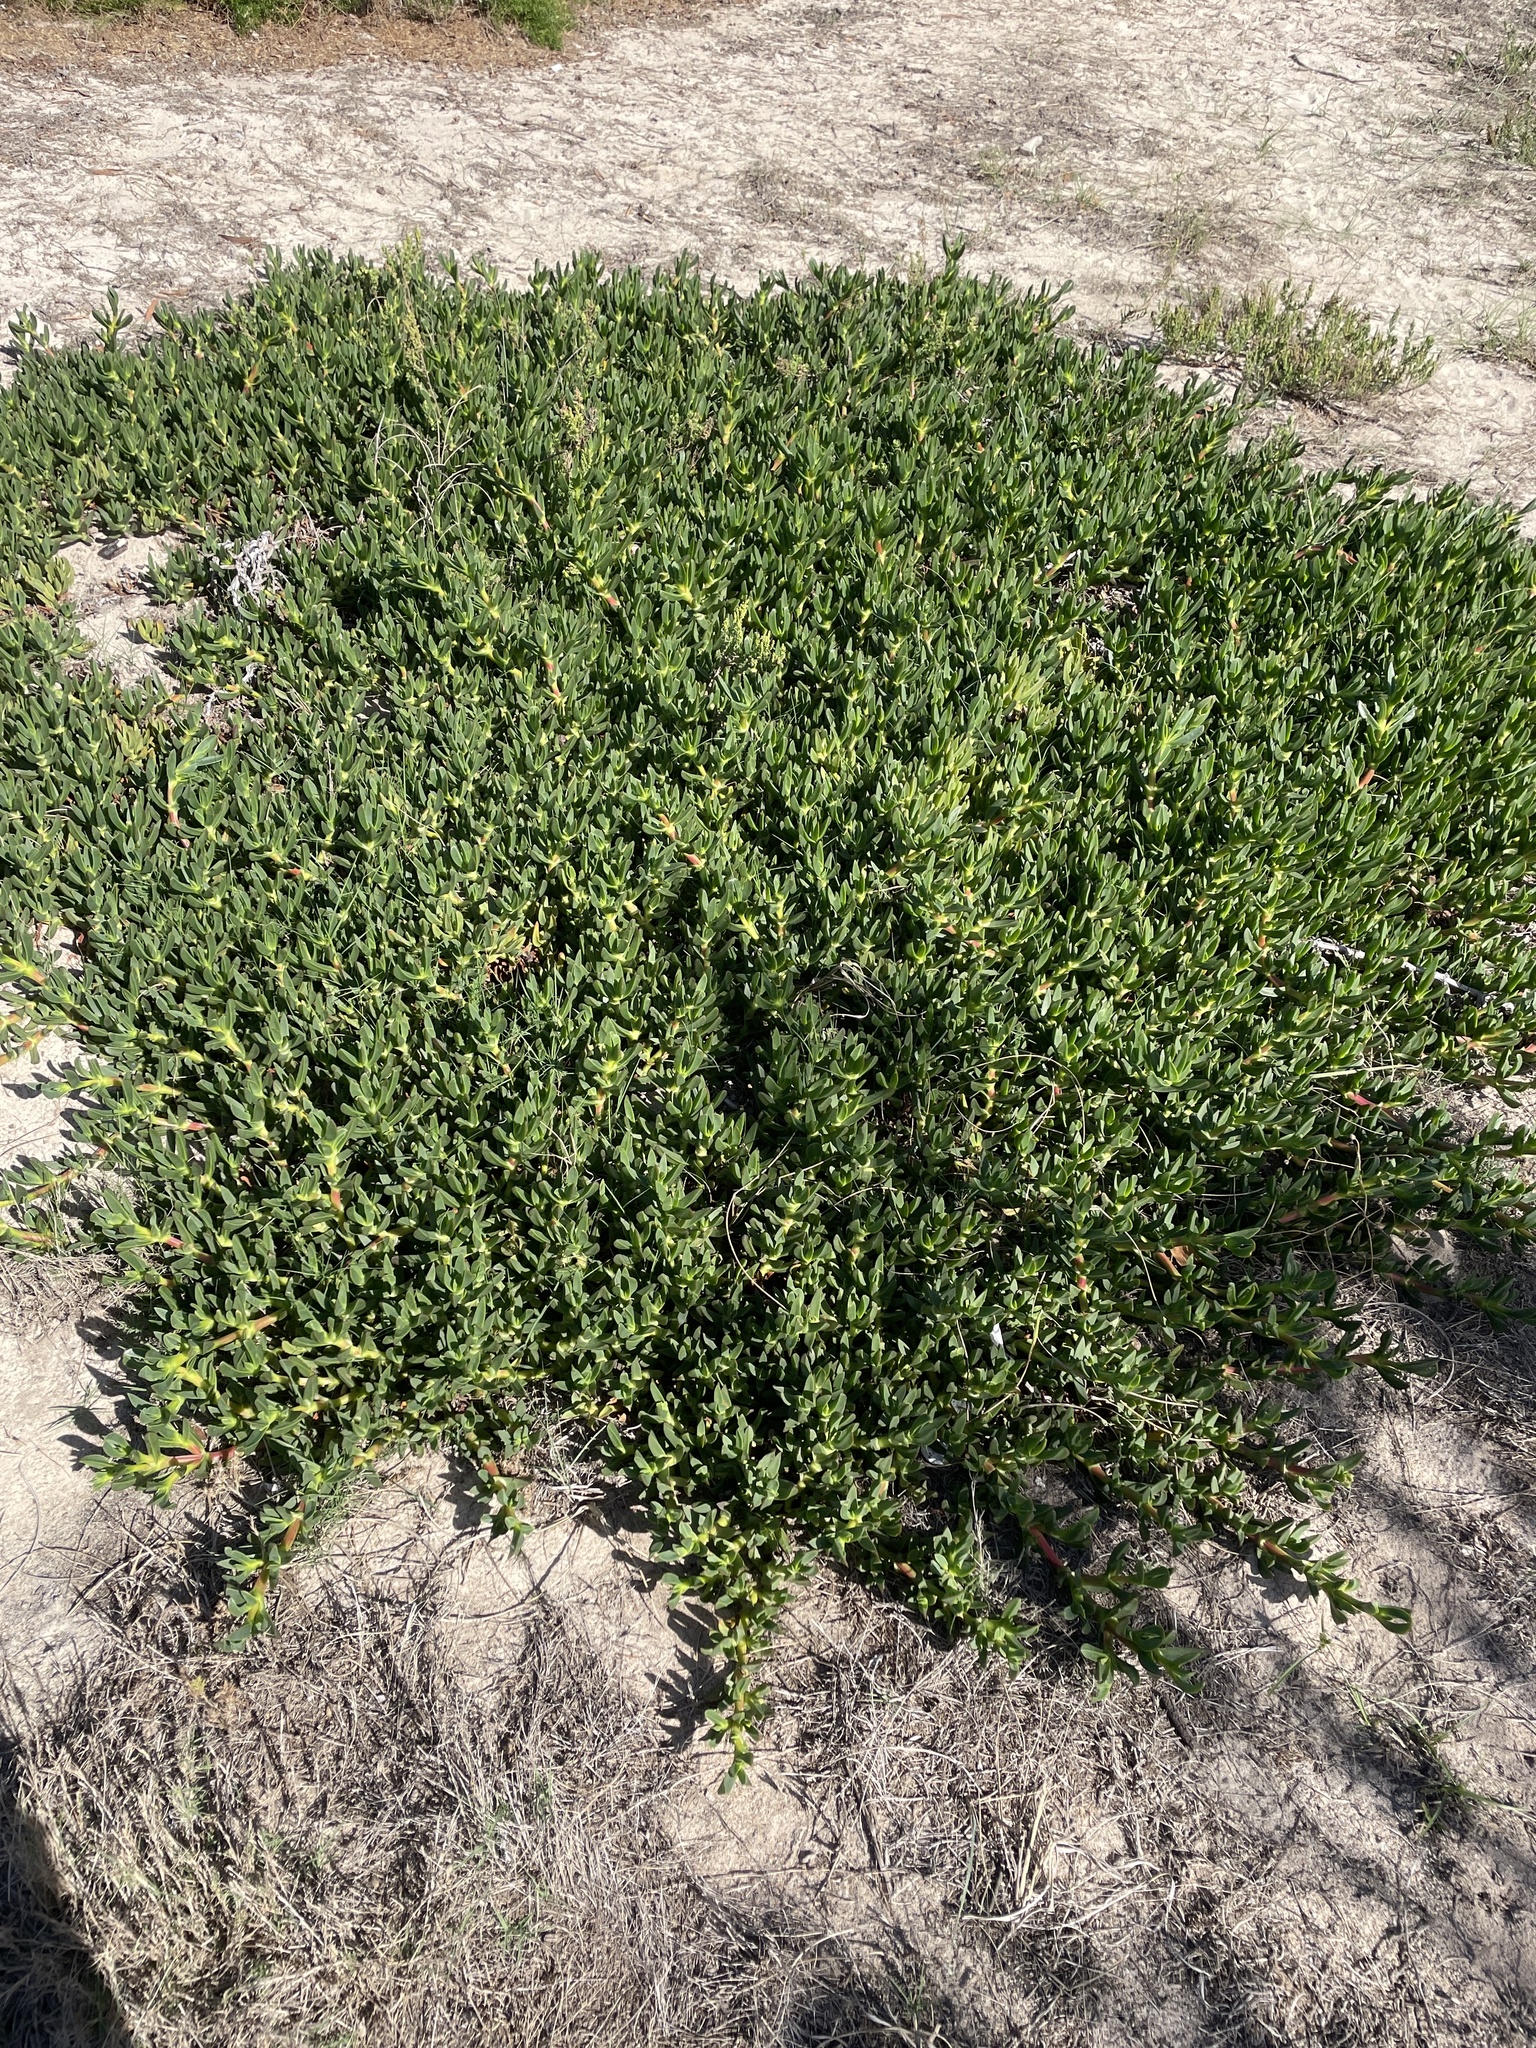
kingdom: Plantae
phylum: Tracheophyta
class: Magnoliopsida
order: Caryophyllales
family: Aizoaceae
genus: Carpobrotus
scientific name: Carpobrotus edulis
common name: Hottentot-fig
